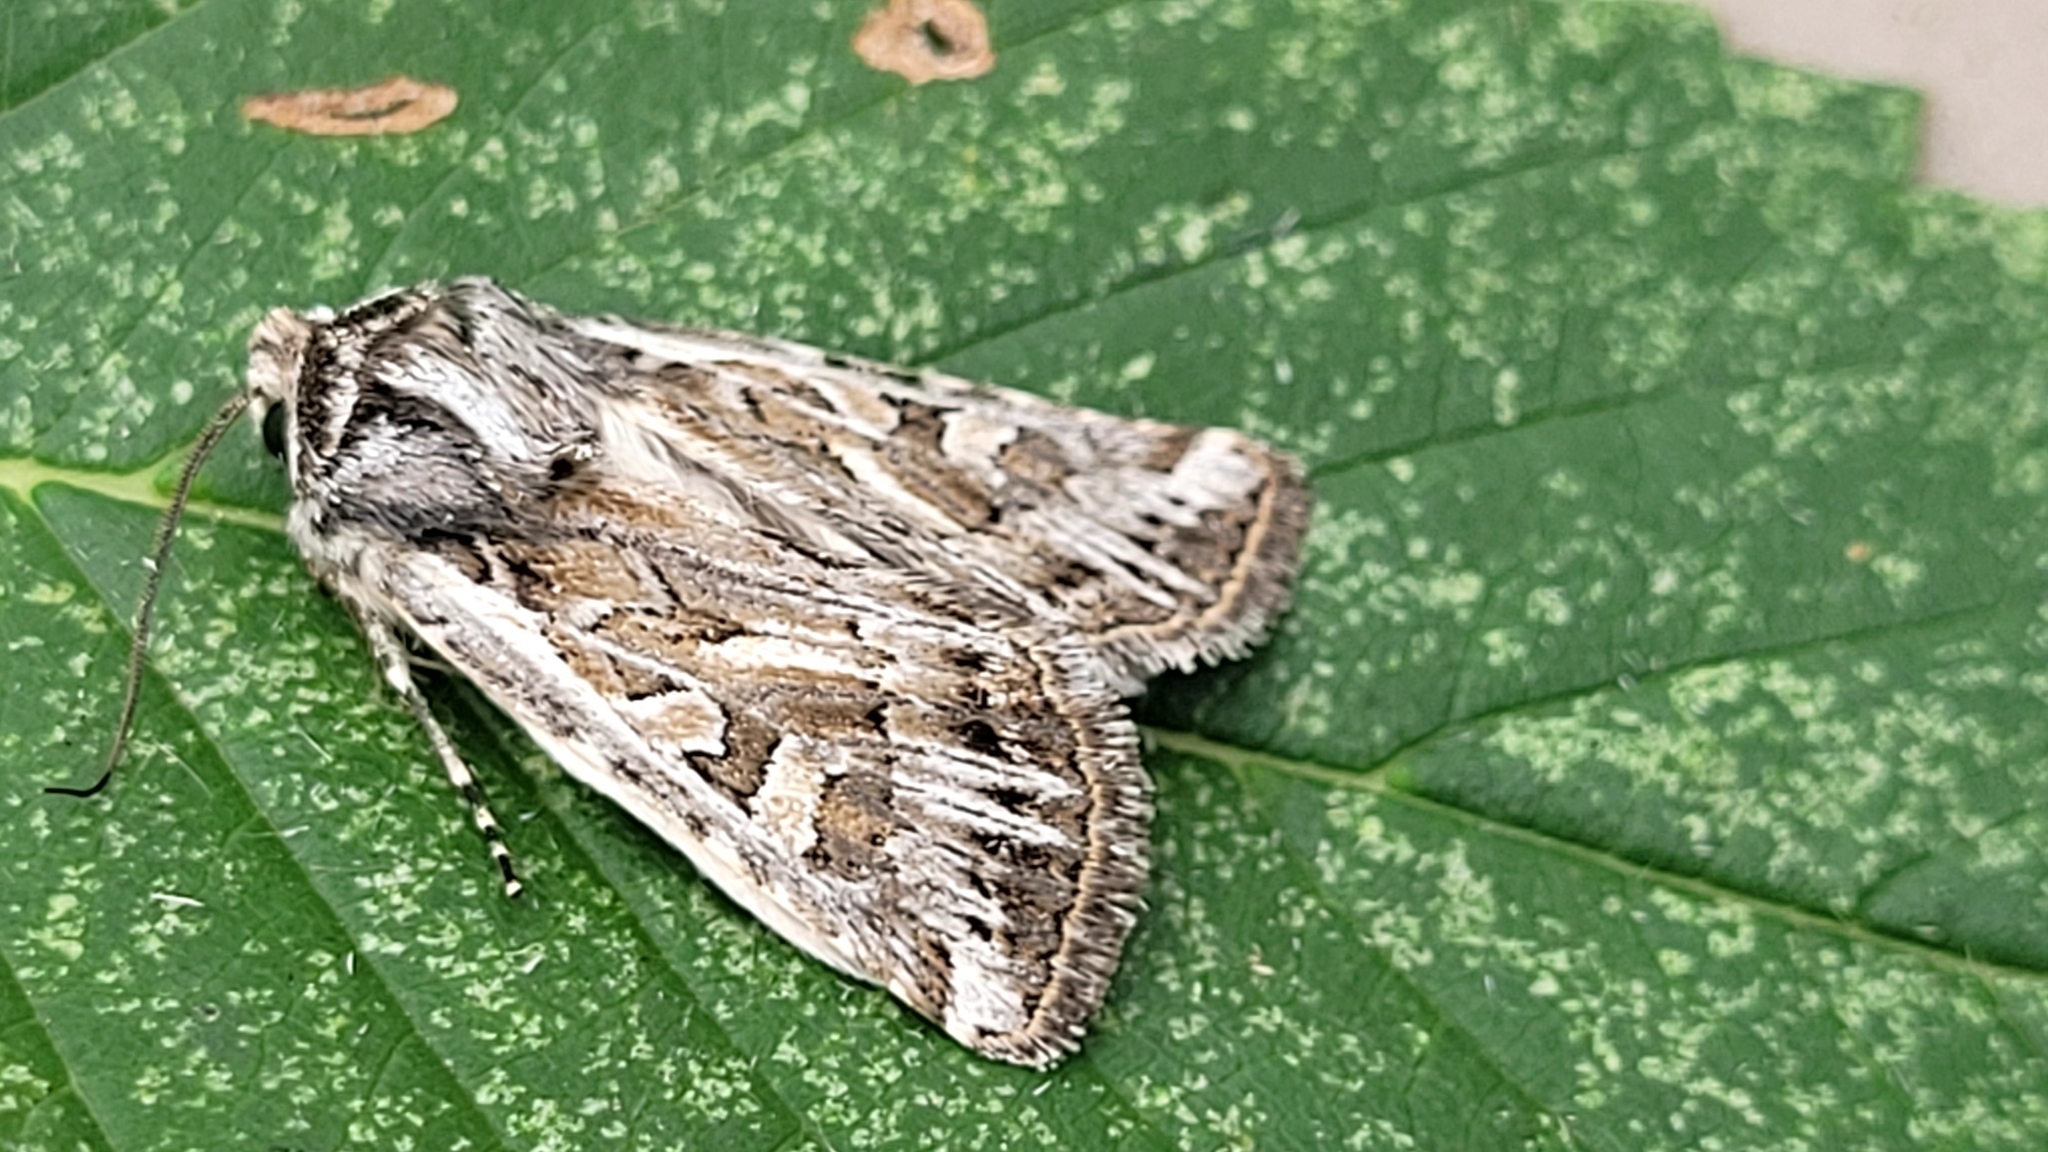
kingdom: Animalia
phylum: Arthropoda
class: Insecta
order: Lepidoptera
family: Noctuidae
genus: Euxoa
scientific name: Euxoa cicatricosa
